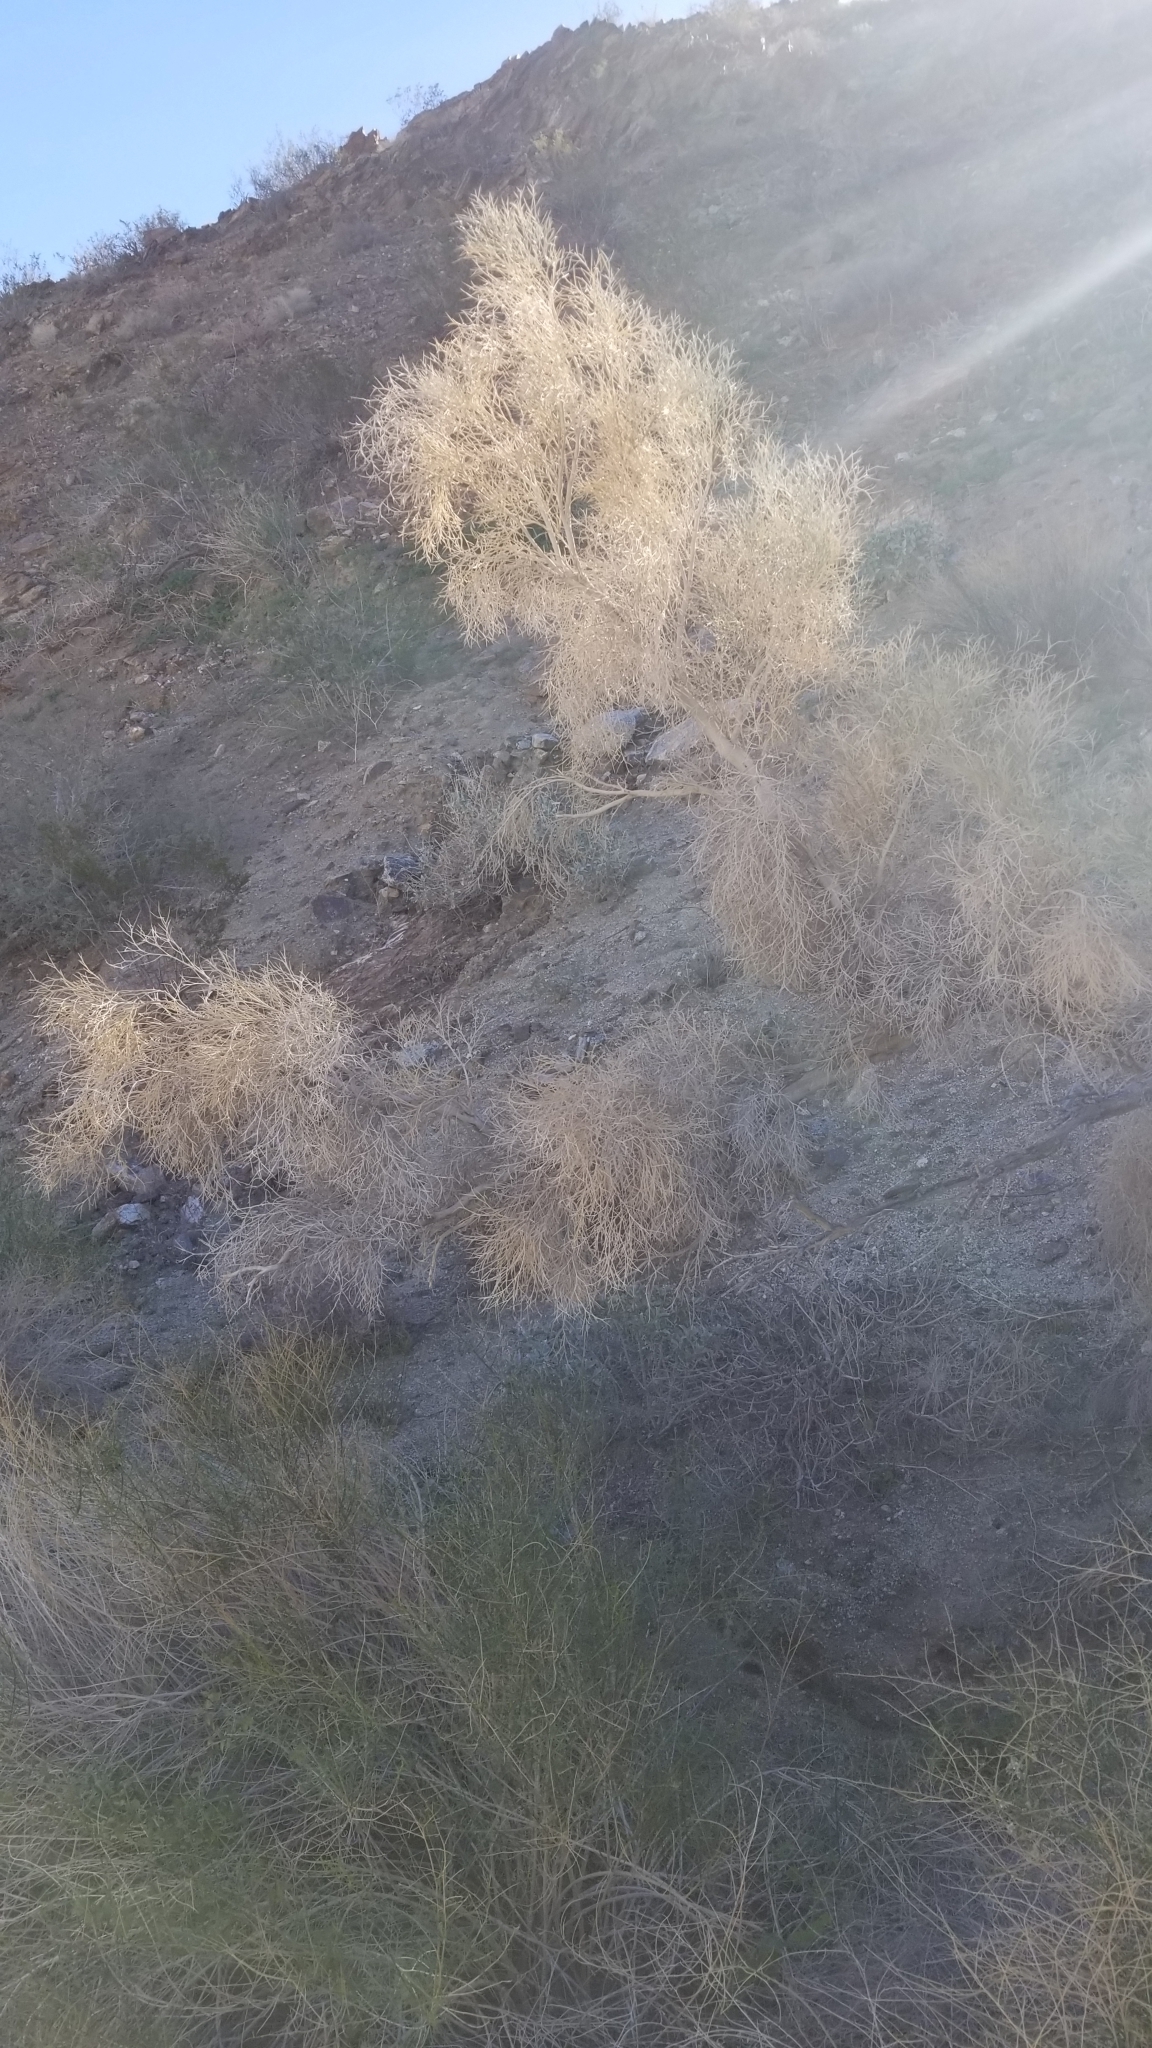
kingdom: Plantae
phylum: Tracheophyta
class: Magnoliopsida
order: Fabales
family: Fabaceae
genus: Psorothamnus
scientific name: Psorothamnus spinosus
